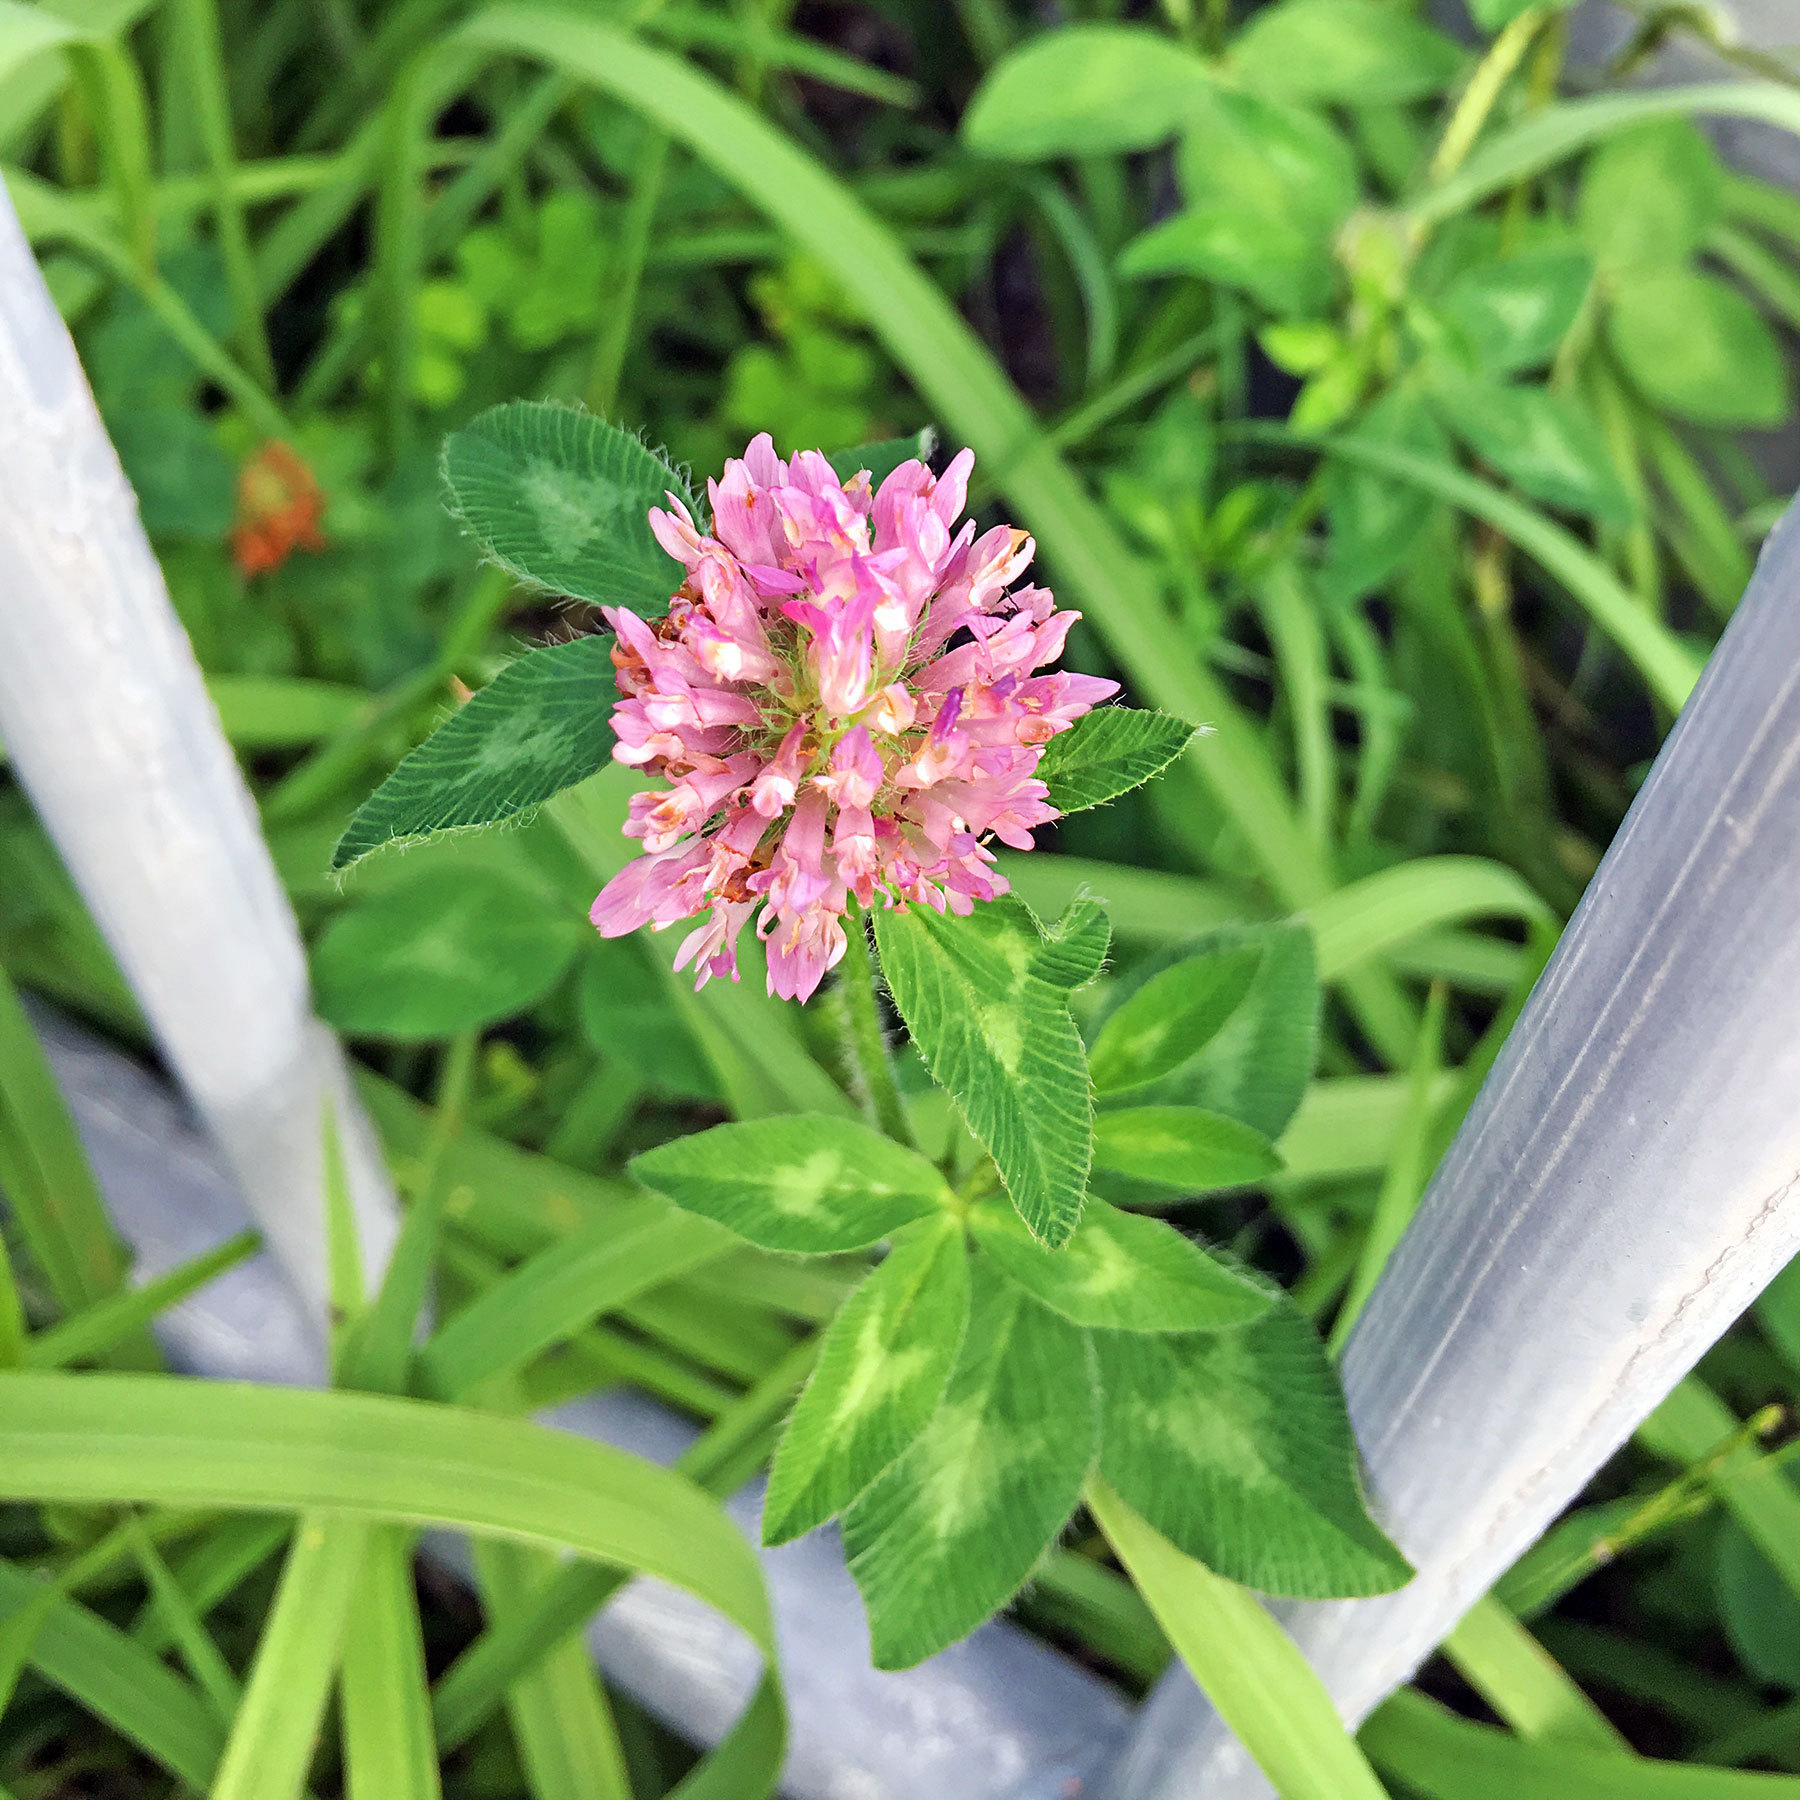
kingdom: Plantae
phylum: Tracheophyta
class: Magnoliopsida
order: Fabales
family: Fabaceae
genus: Trifolium
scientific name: Trifolium pratense
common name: Red clover
